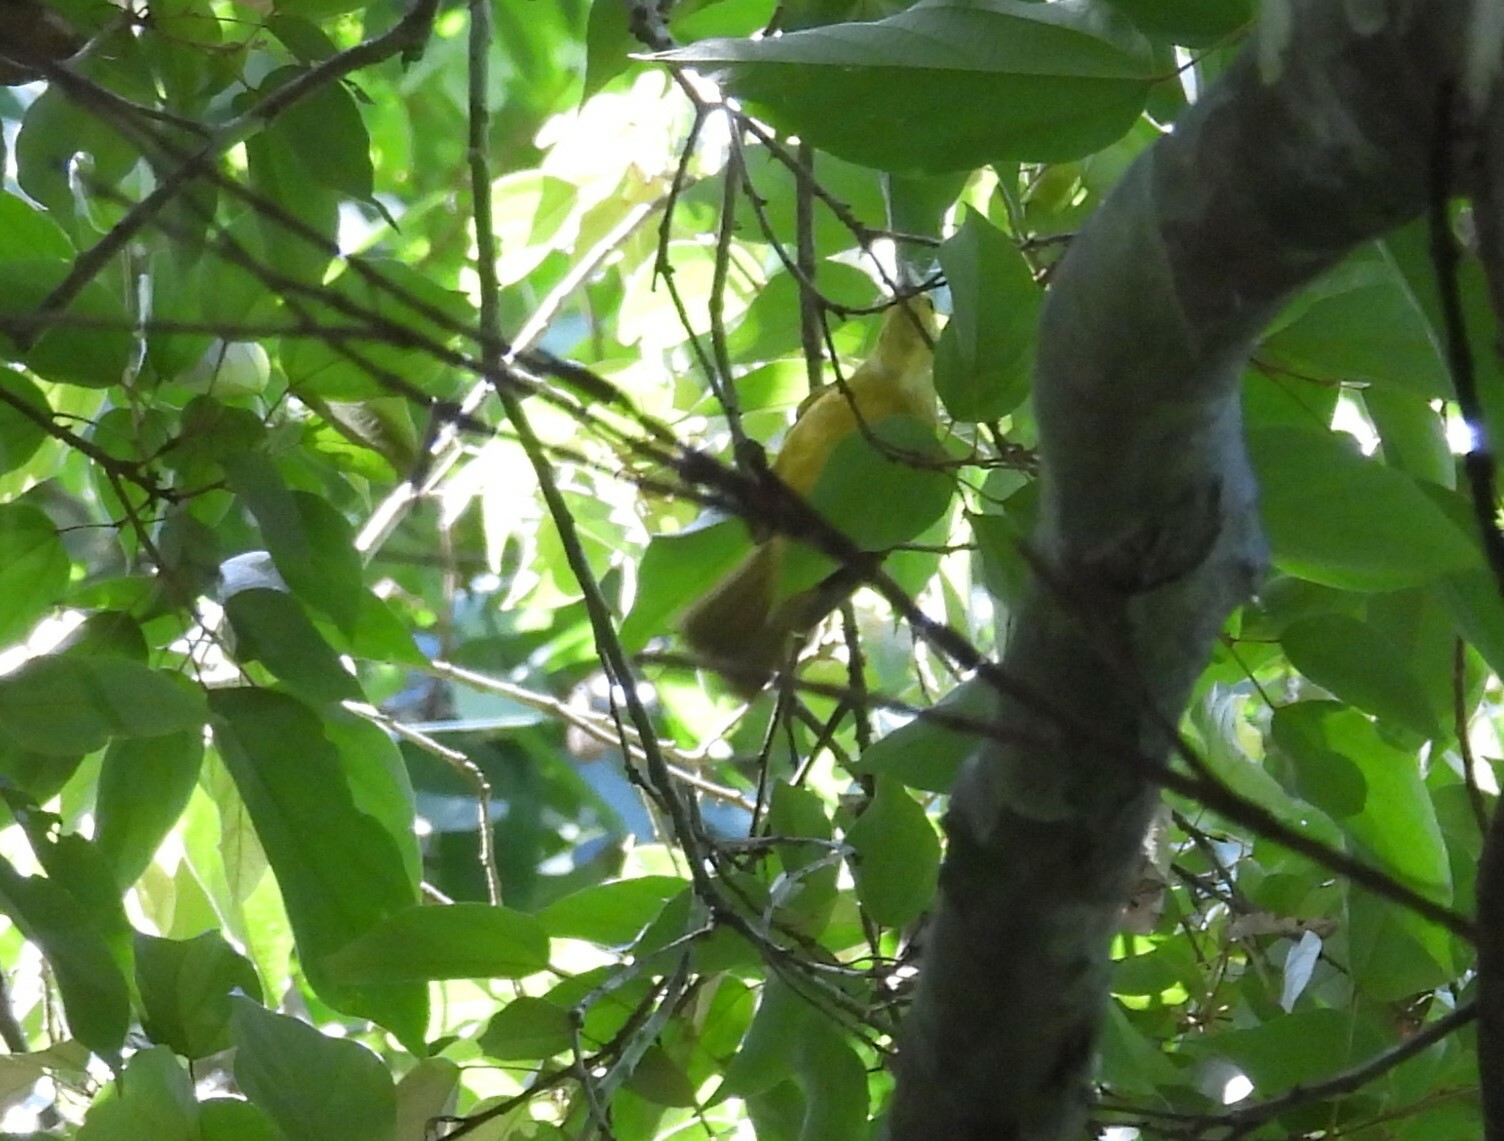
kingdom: Animalia
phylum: Chordata
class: Aves
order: Passeriformes
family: Pycnonotidae
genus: Acritillas
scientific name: Acritillas indica
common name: Yellow-browed bulbul
